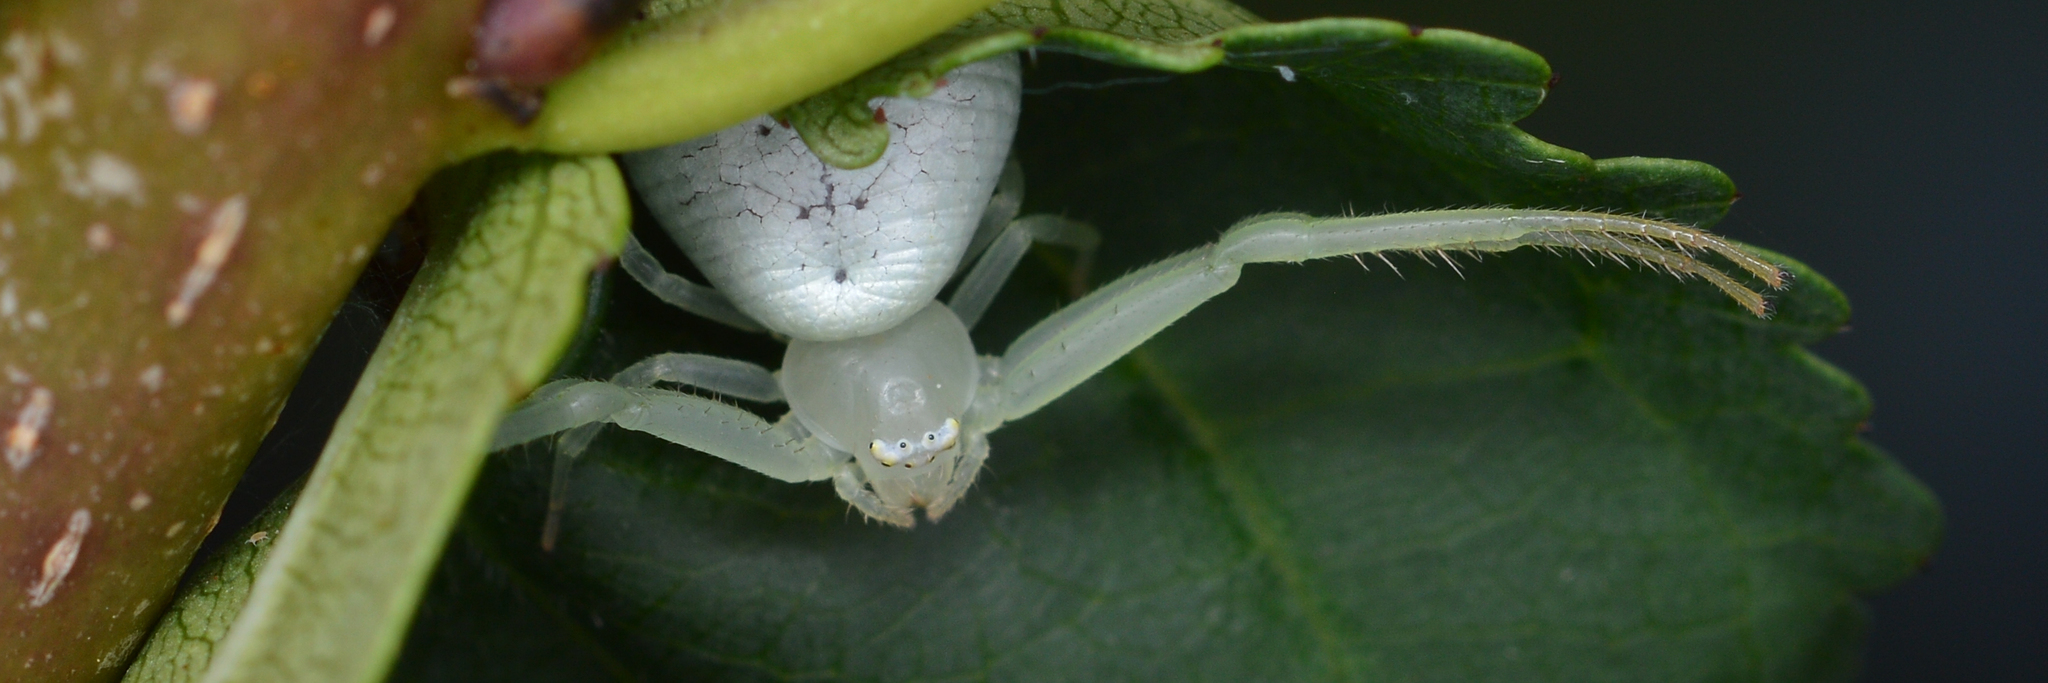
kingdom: Animalia
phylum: Arthropoda
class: Arachnida
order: Araneae
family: Thomisidae
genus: Misumessus
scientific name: Misumessus oblongus
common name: American green crab spider
